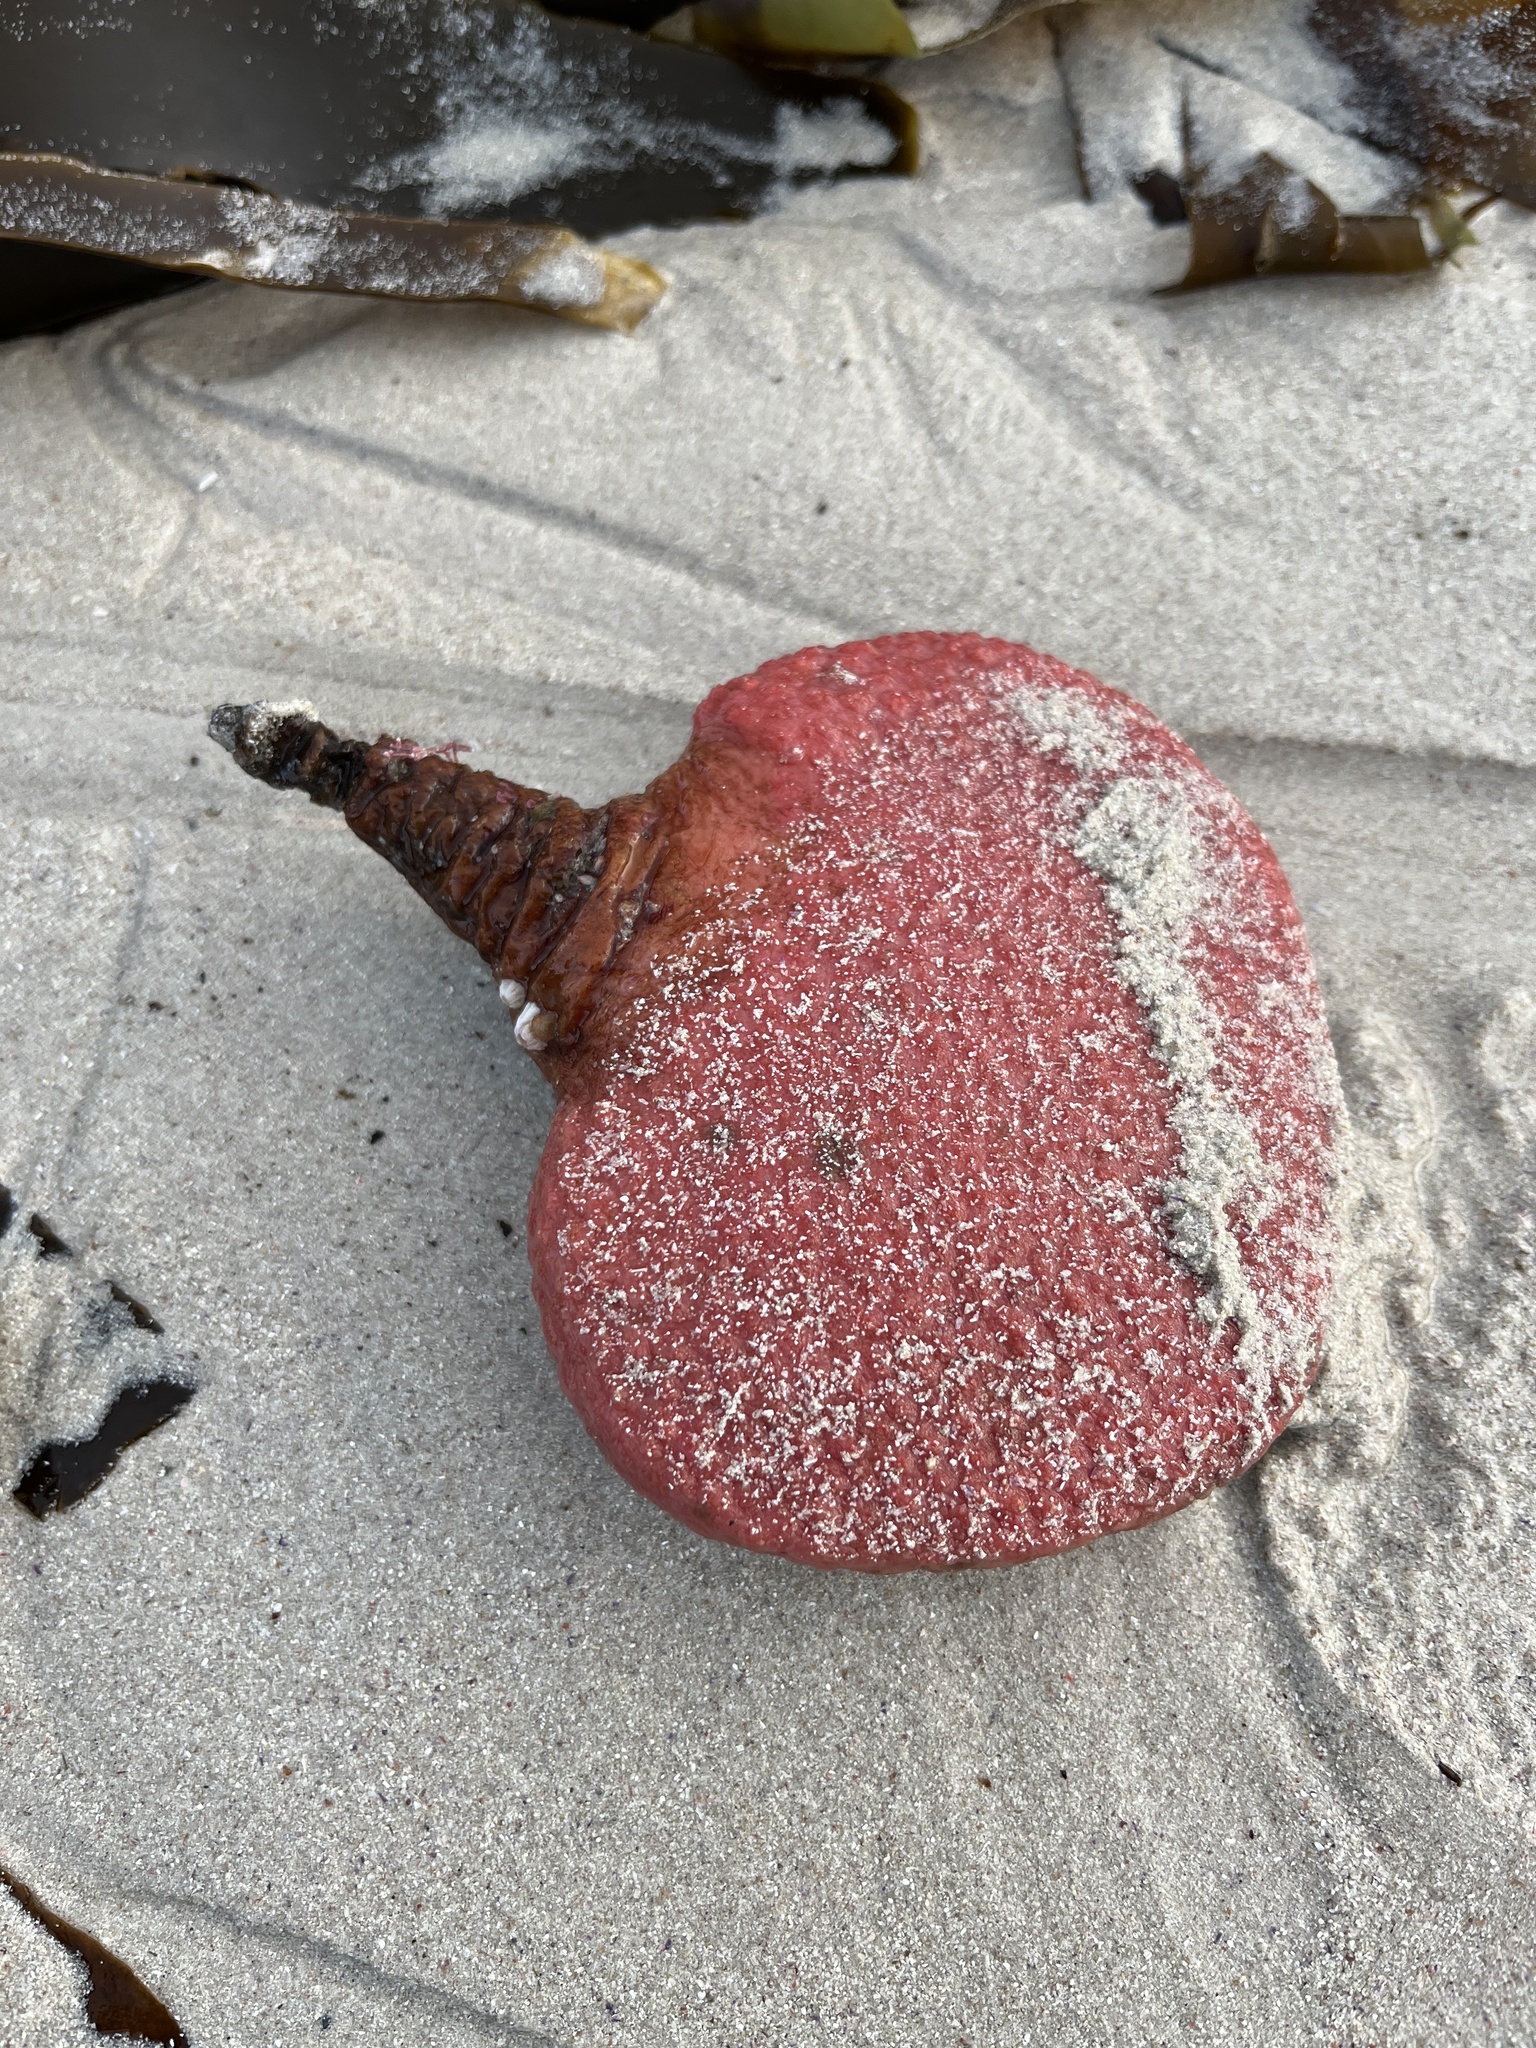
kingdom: Animalia
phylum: Chordata
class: Ascidiacea
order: Stolidobranchia
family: Styelidae
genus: Gynandrocarpa
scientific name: Gynandrocarpa placenta
